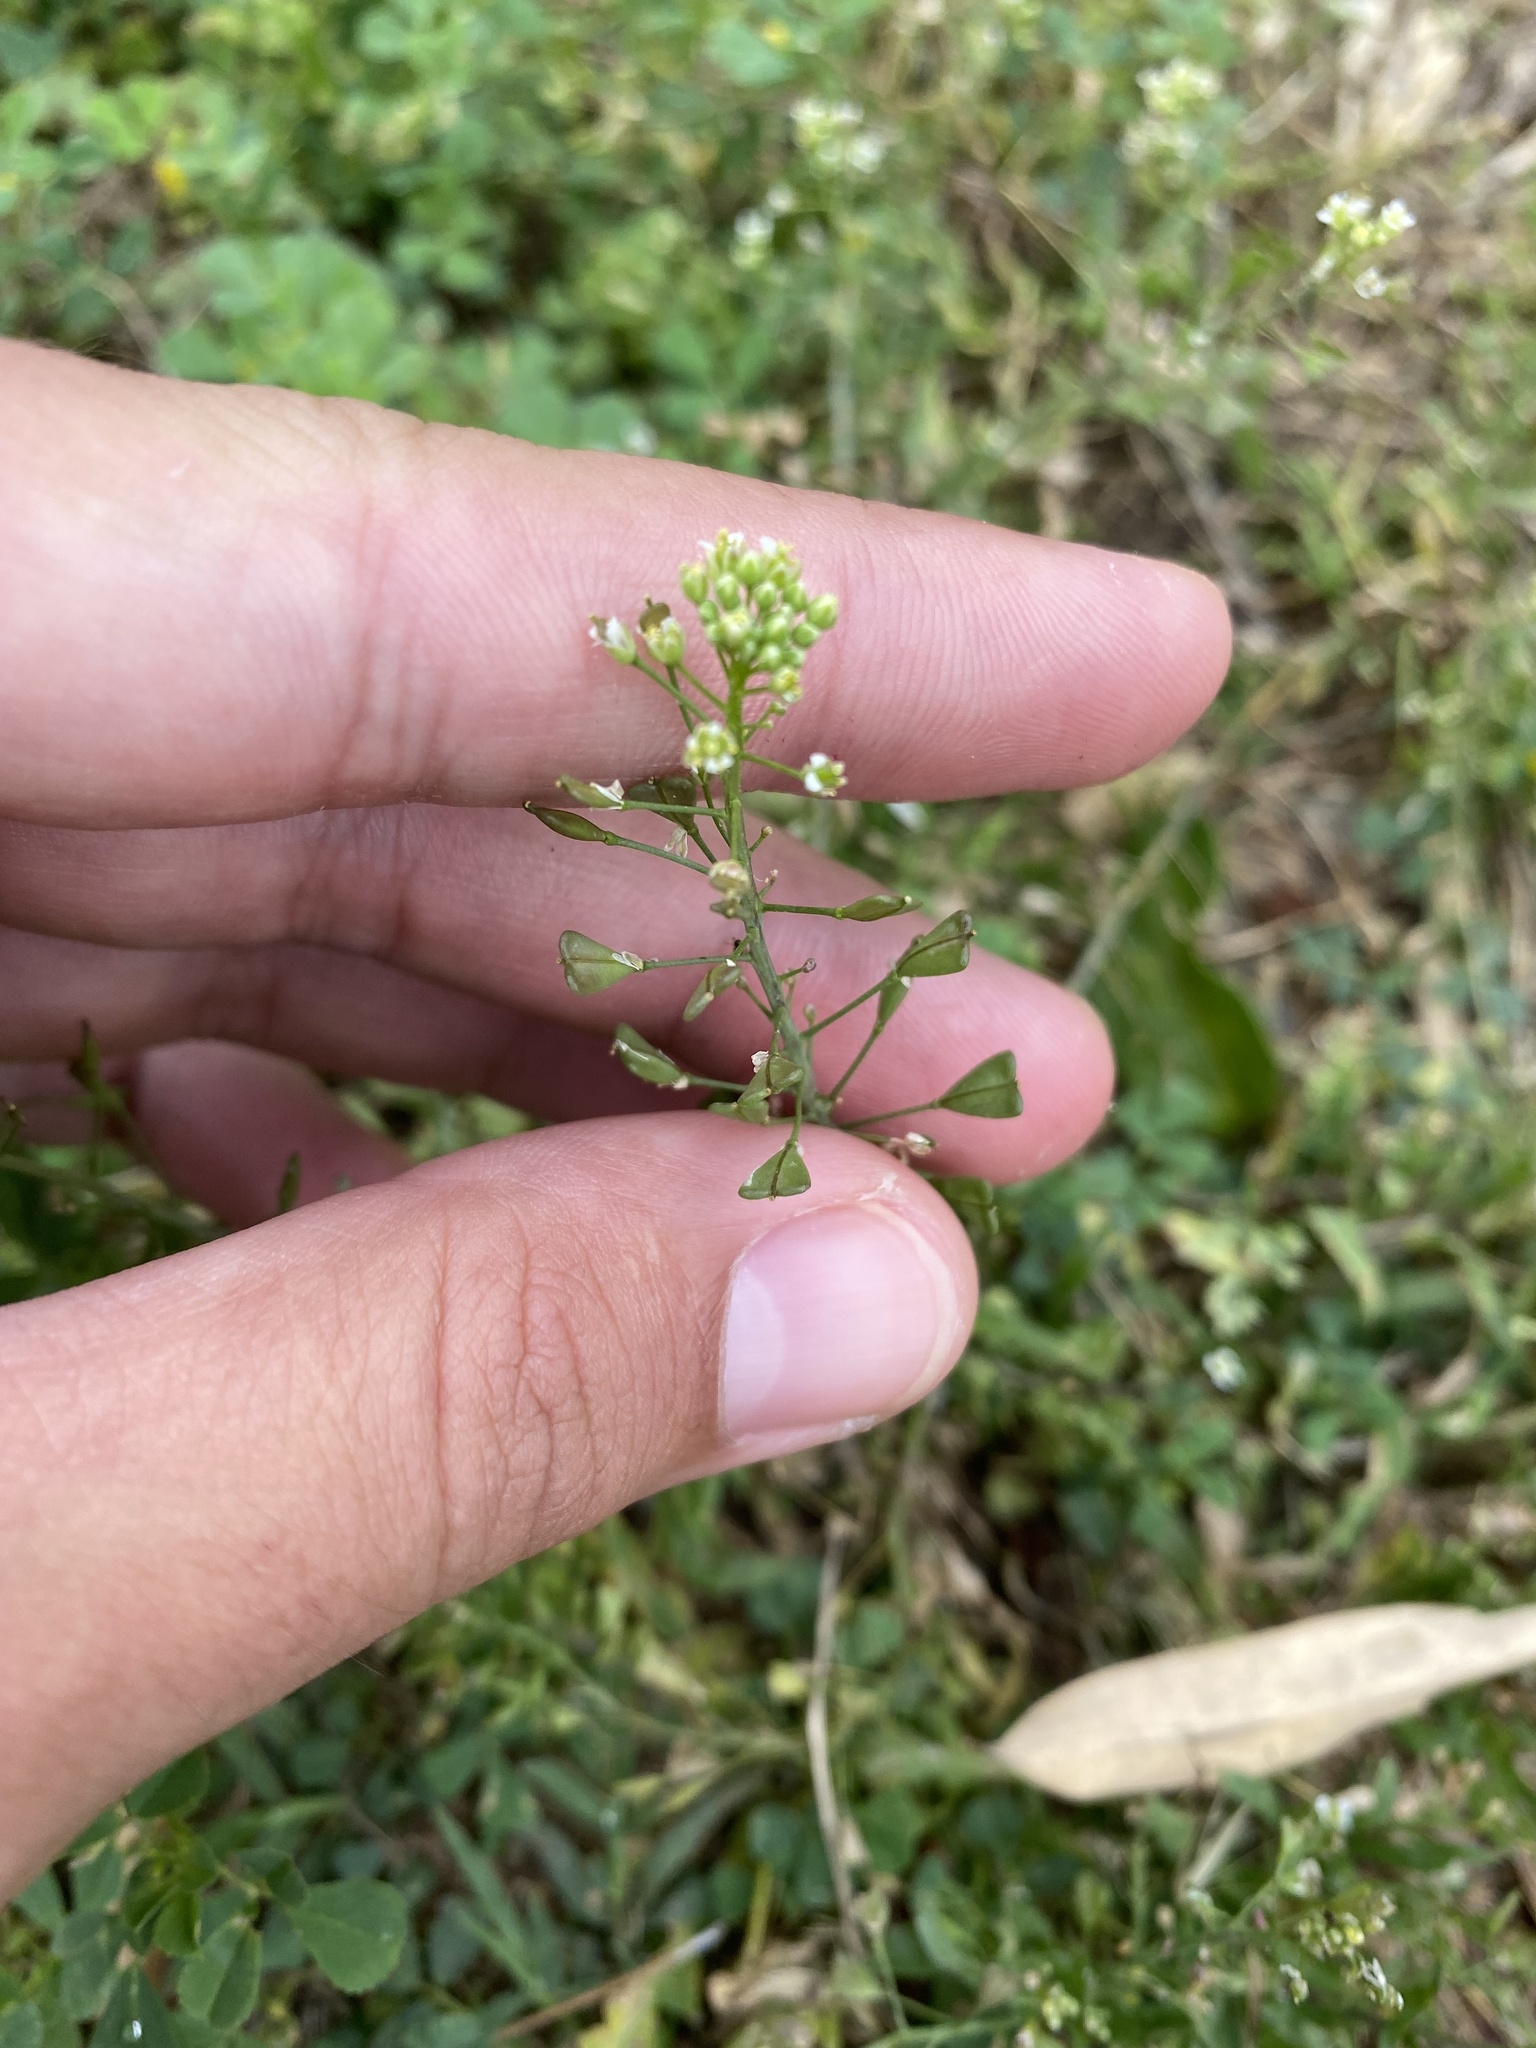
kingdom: Plantae
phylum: Tracheophyta
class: Magnoliopsida
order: Brassicales
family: Brassicaceae
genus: Capsella
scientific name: Capsella bursa-pastoris
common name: Shepherd's purse
